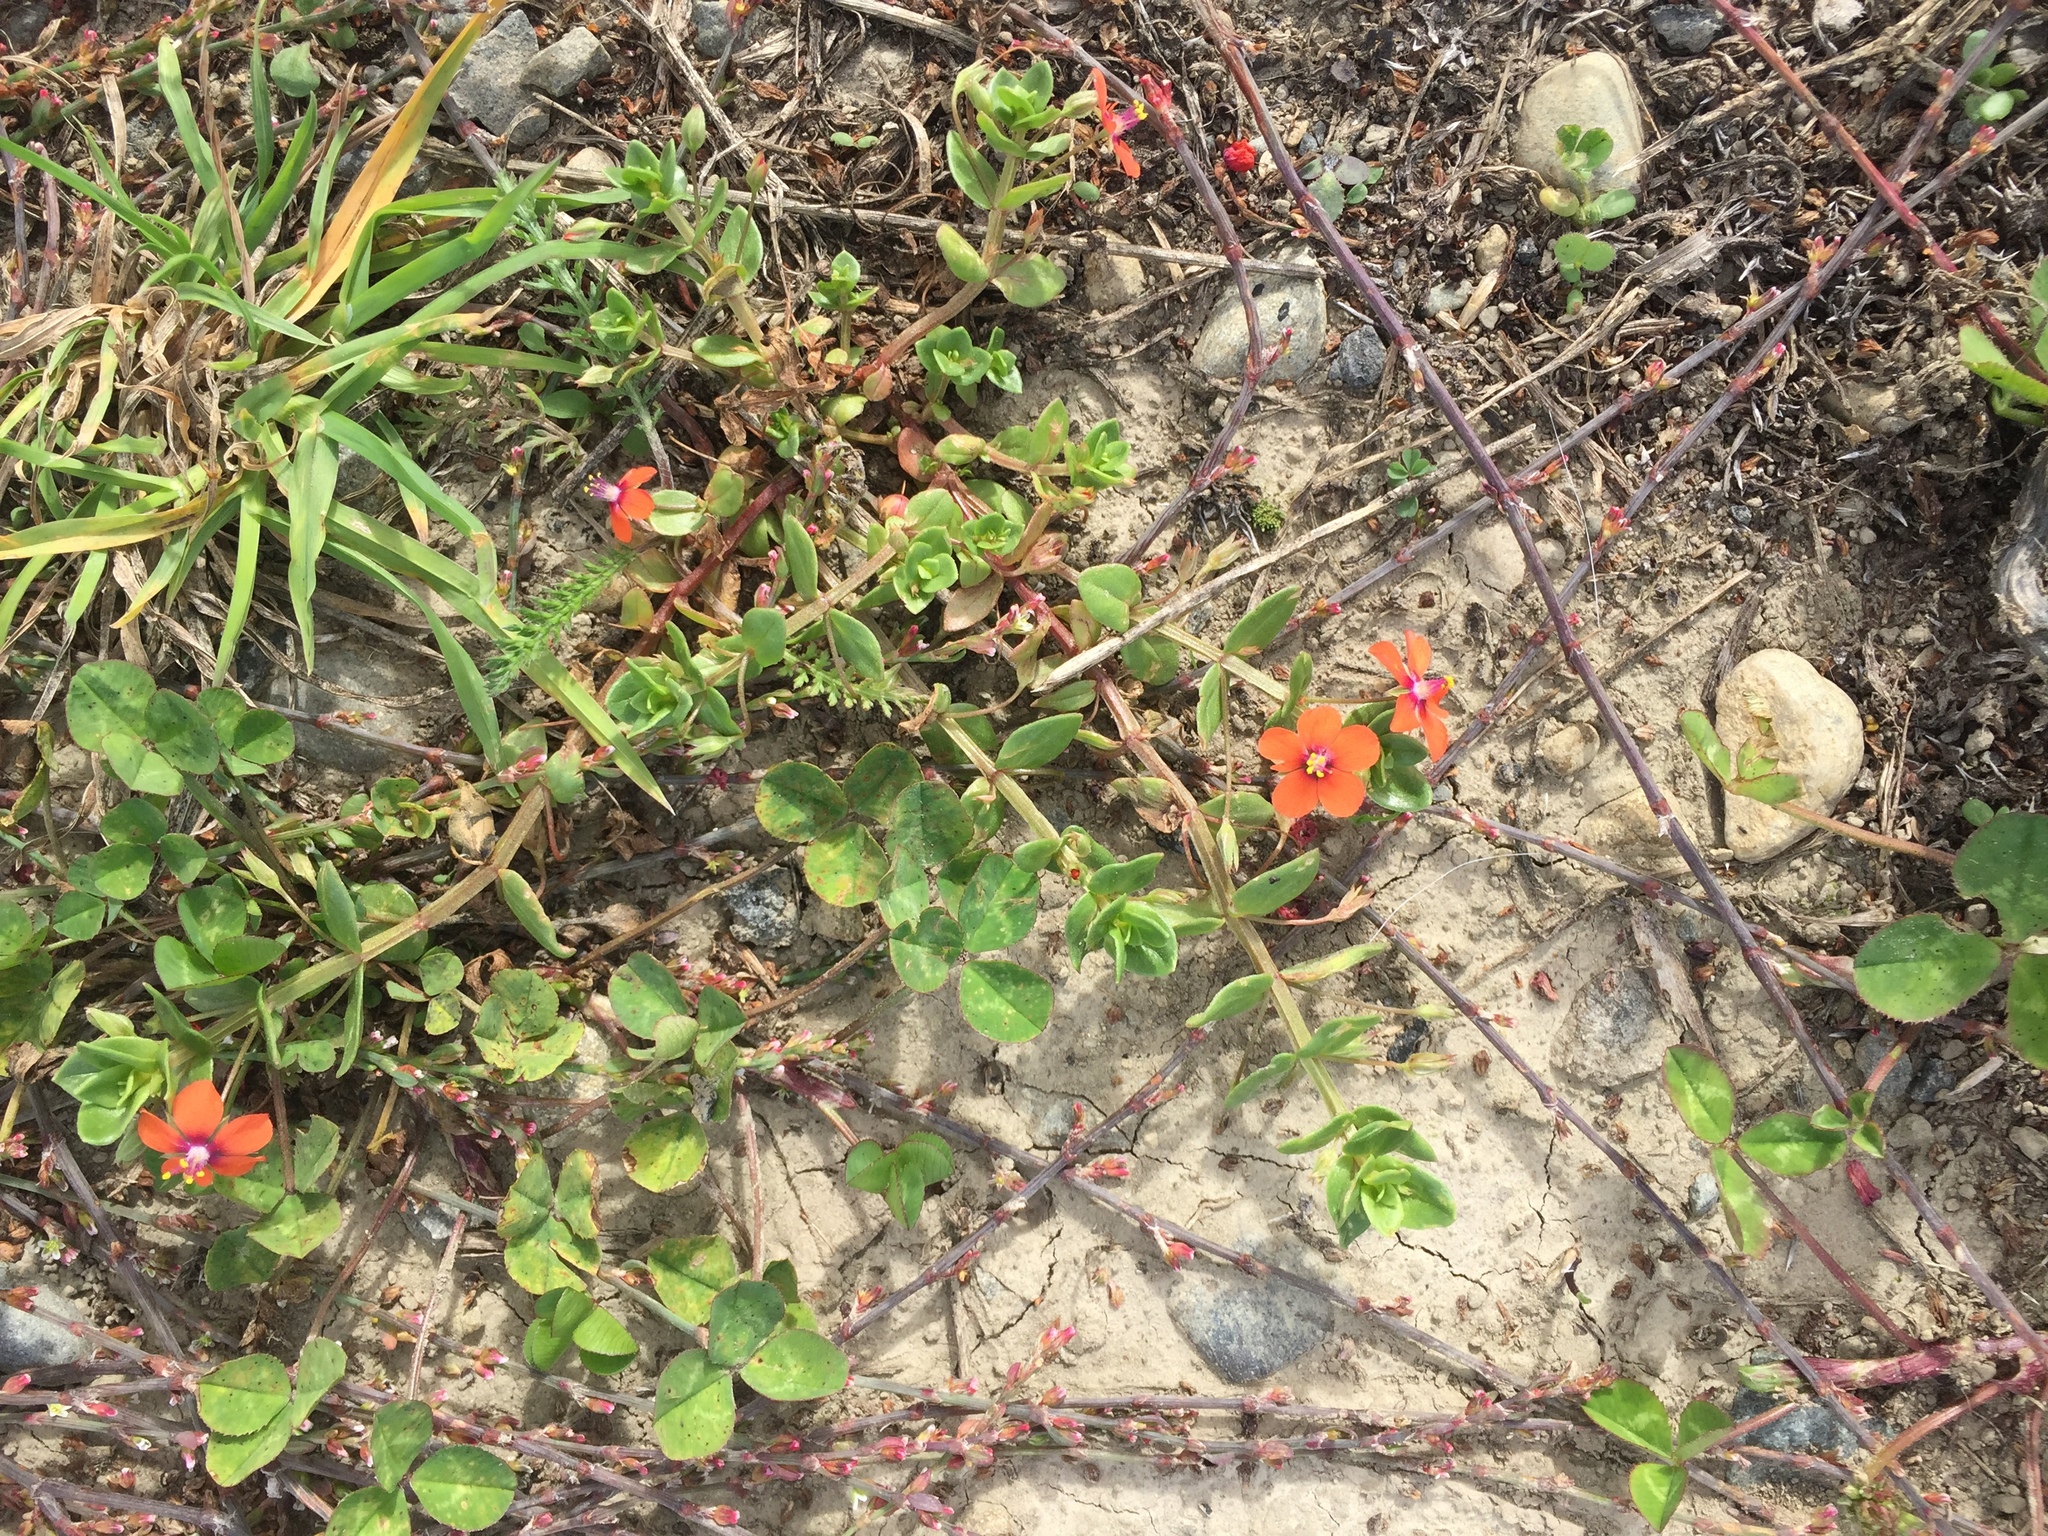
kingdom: Plantae
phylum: Tracheophyta
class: Magnoliopsida
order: Ericales
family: Primulaceae
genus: Lysimachia
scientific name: Lysimachia arvensis
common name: Scarlet pimpernel
